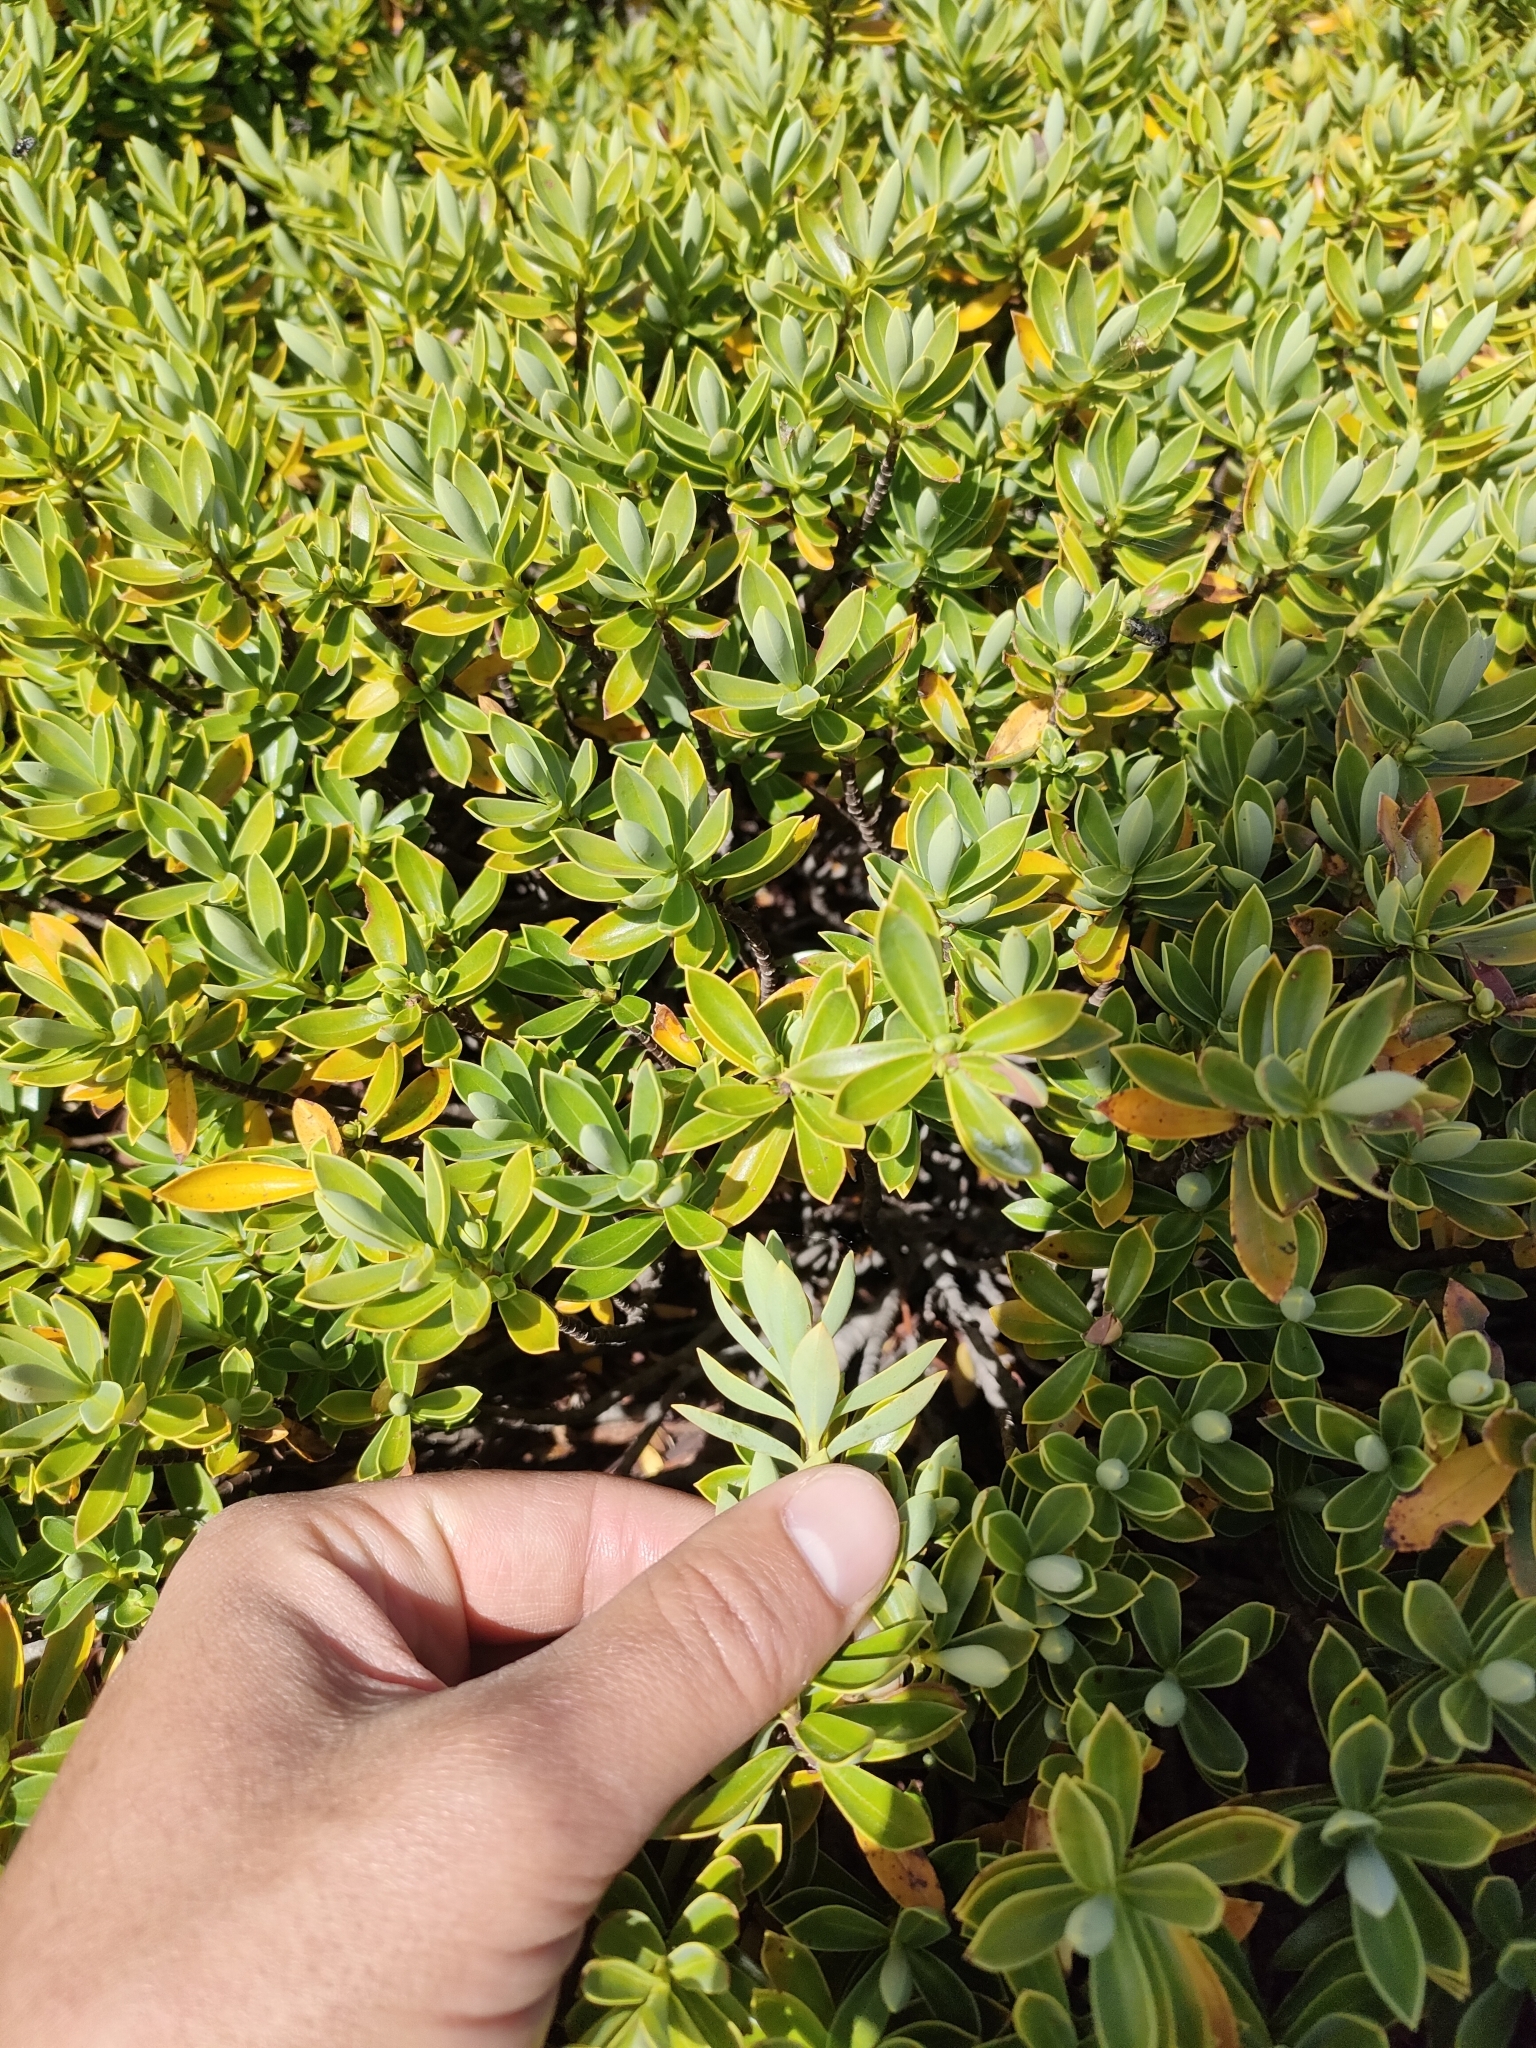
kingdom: Plantae
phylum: Tracheophyta
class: Magnoliopsida
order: Lamiales
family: Plantaginaceae
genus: Veronica
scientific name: Veronica cryptomorpha
